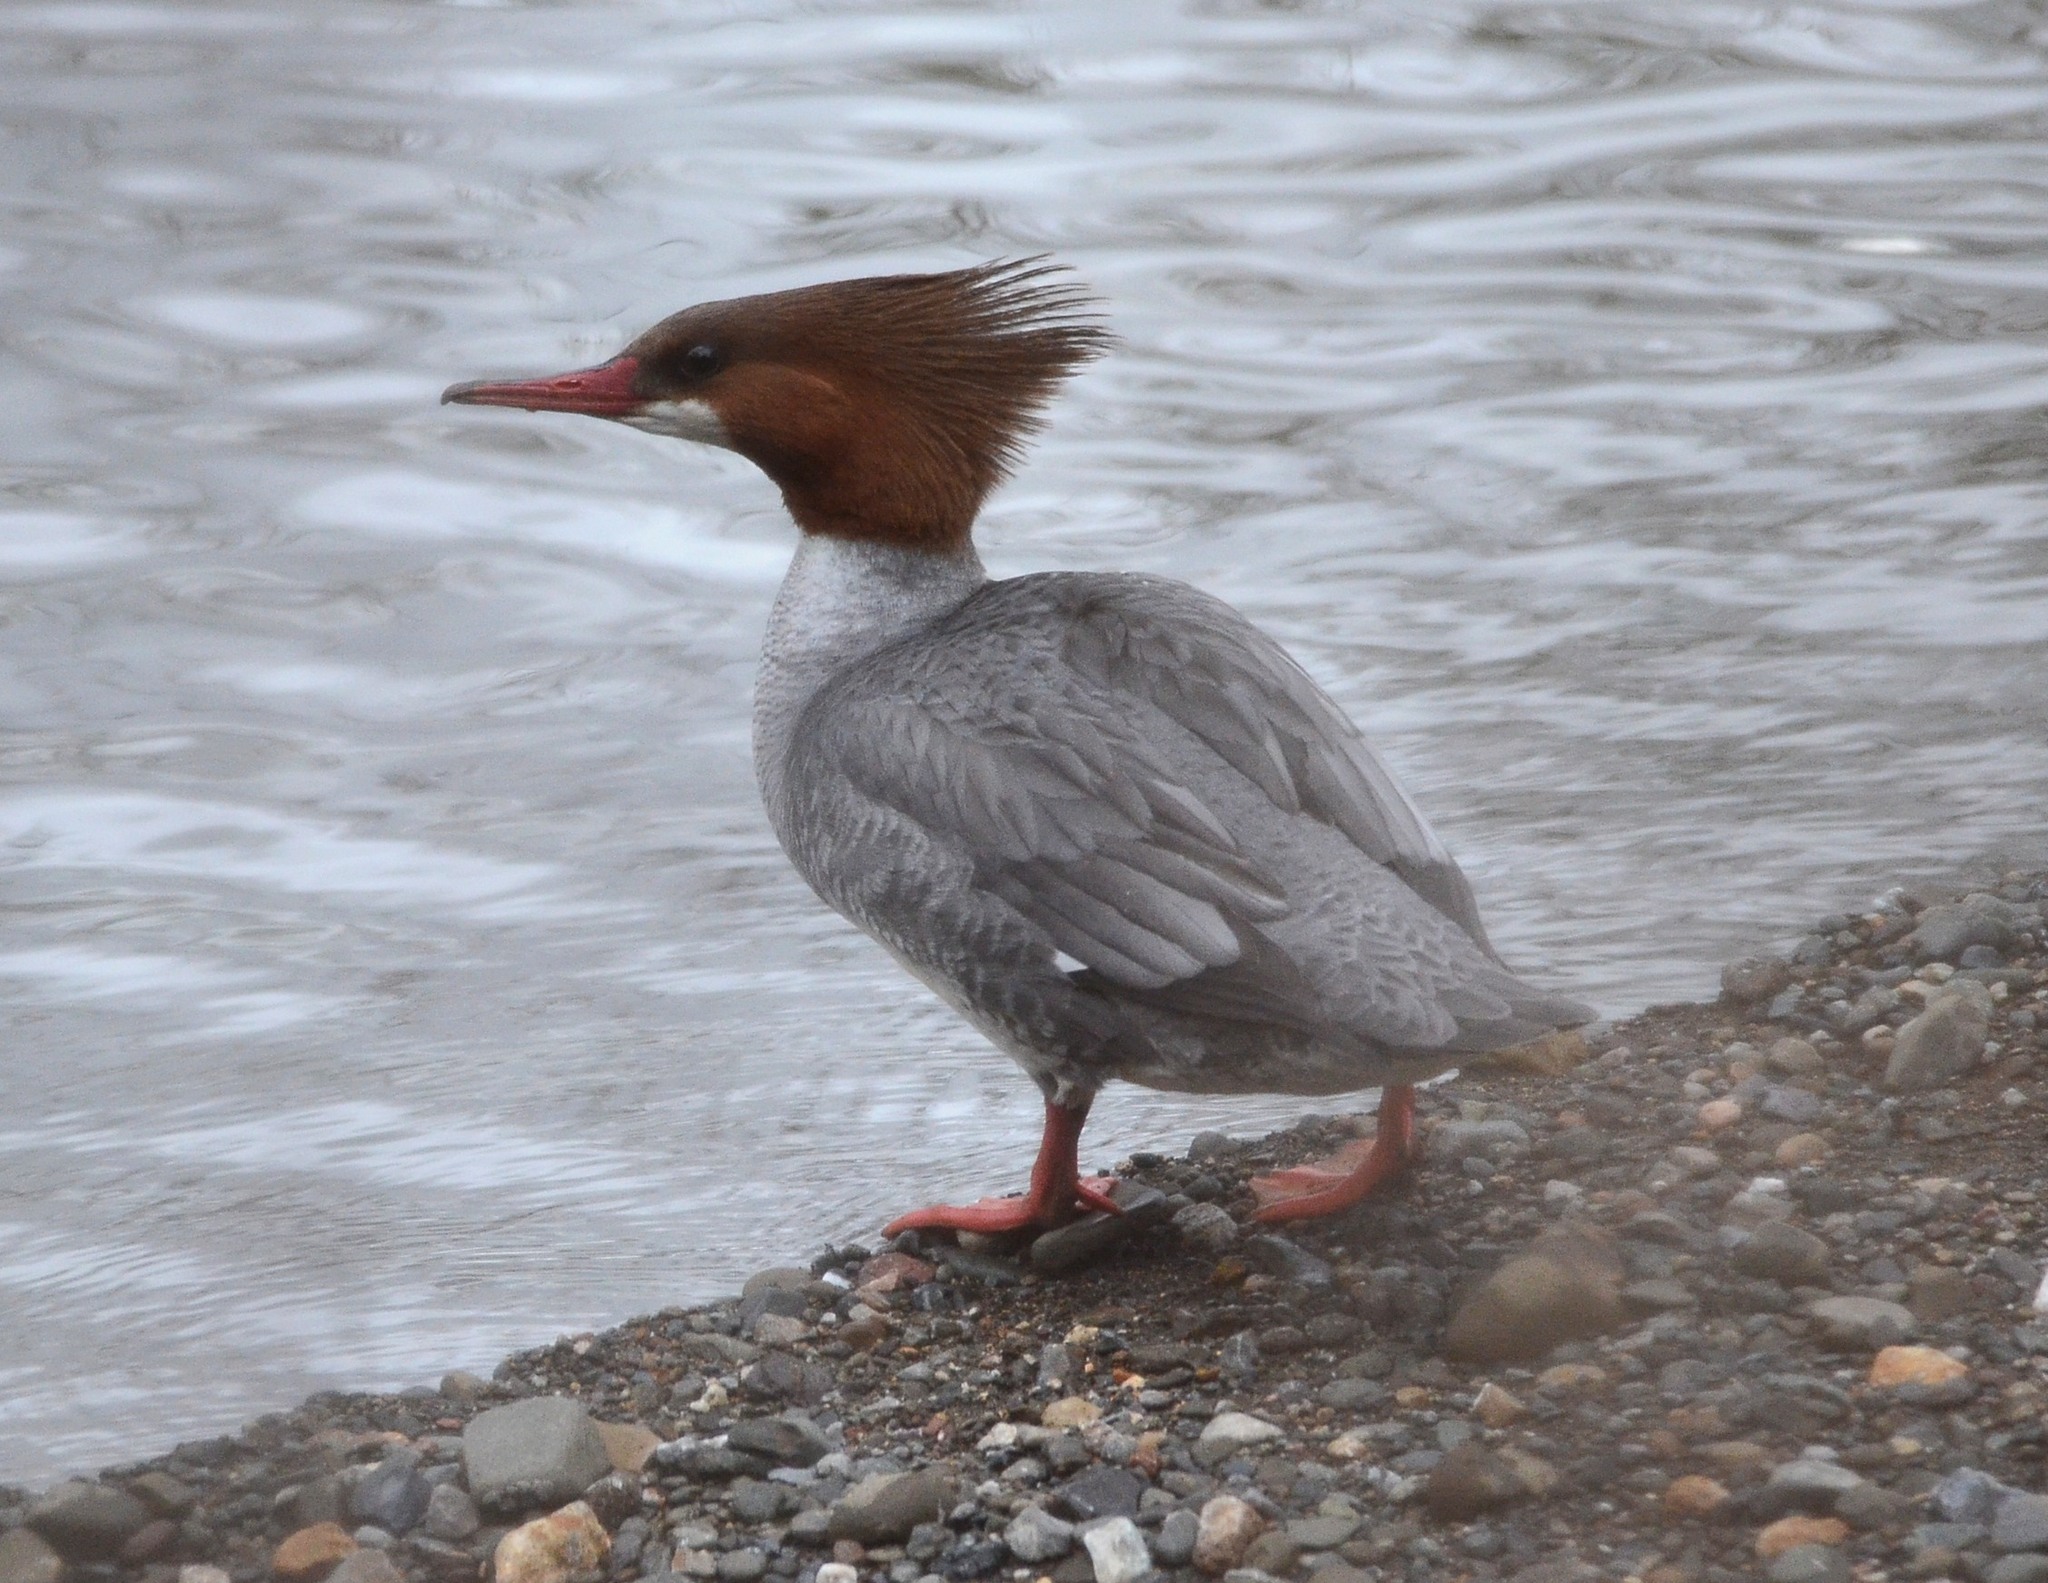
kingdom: Animalia
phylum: Chordata
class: Aves
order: Anseriformes
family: Anatidae
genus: Mergus
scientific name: Mergus merganser
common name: Common merganser
